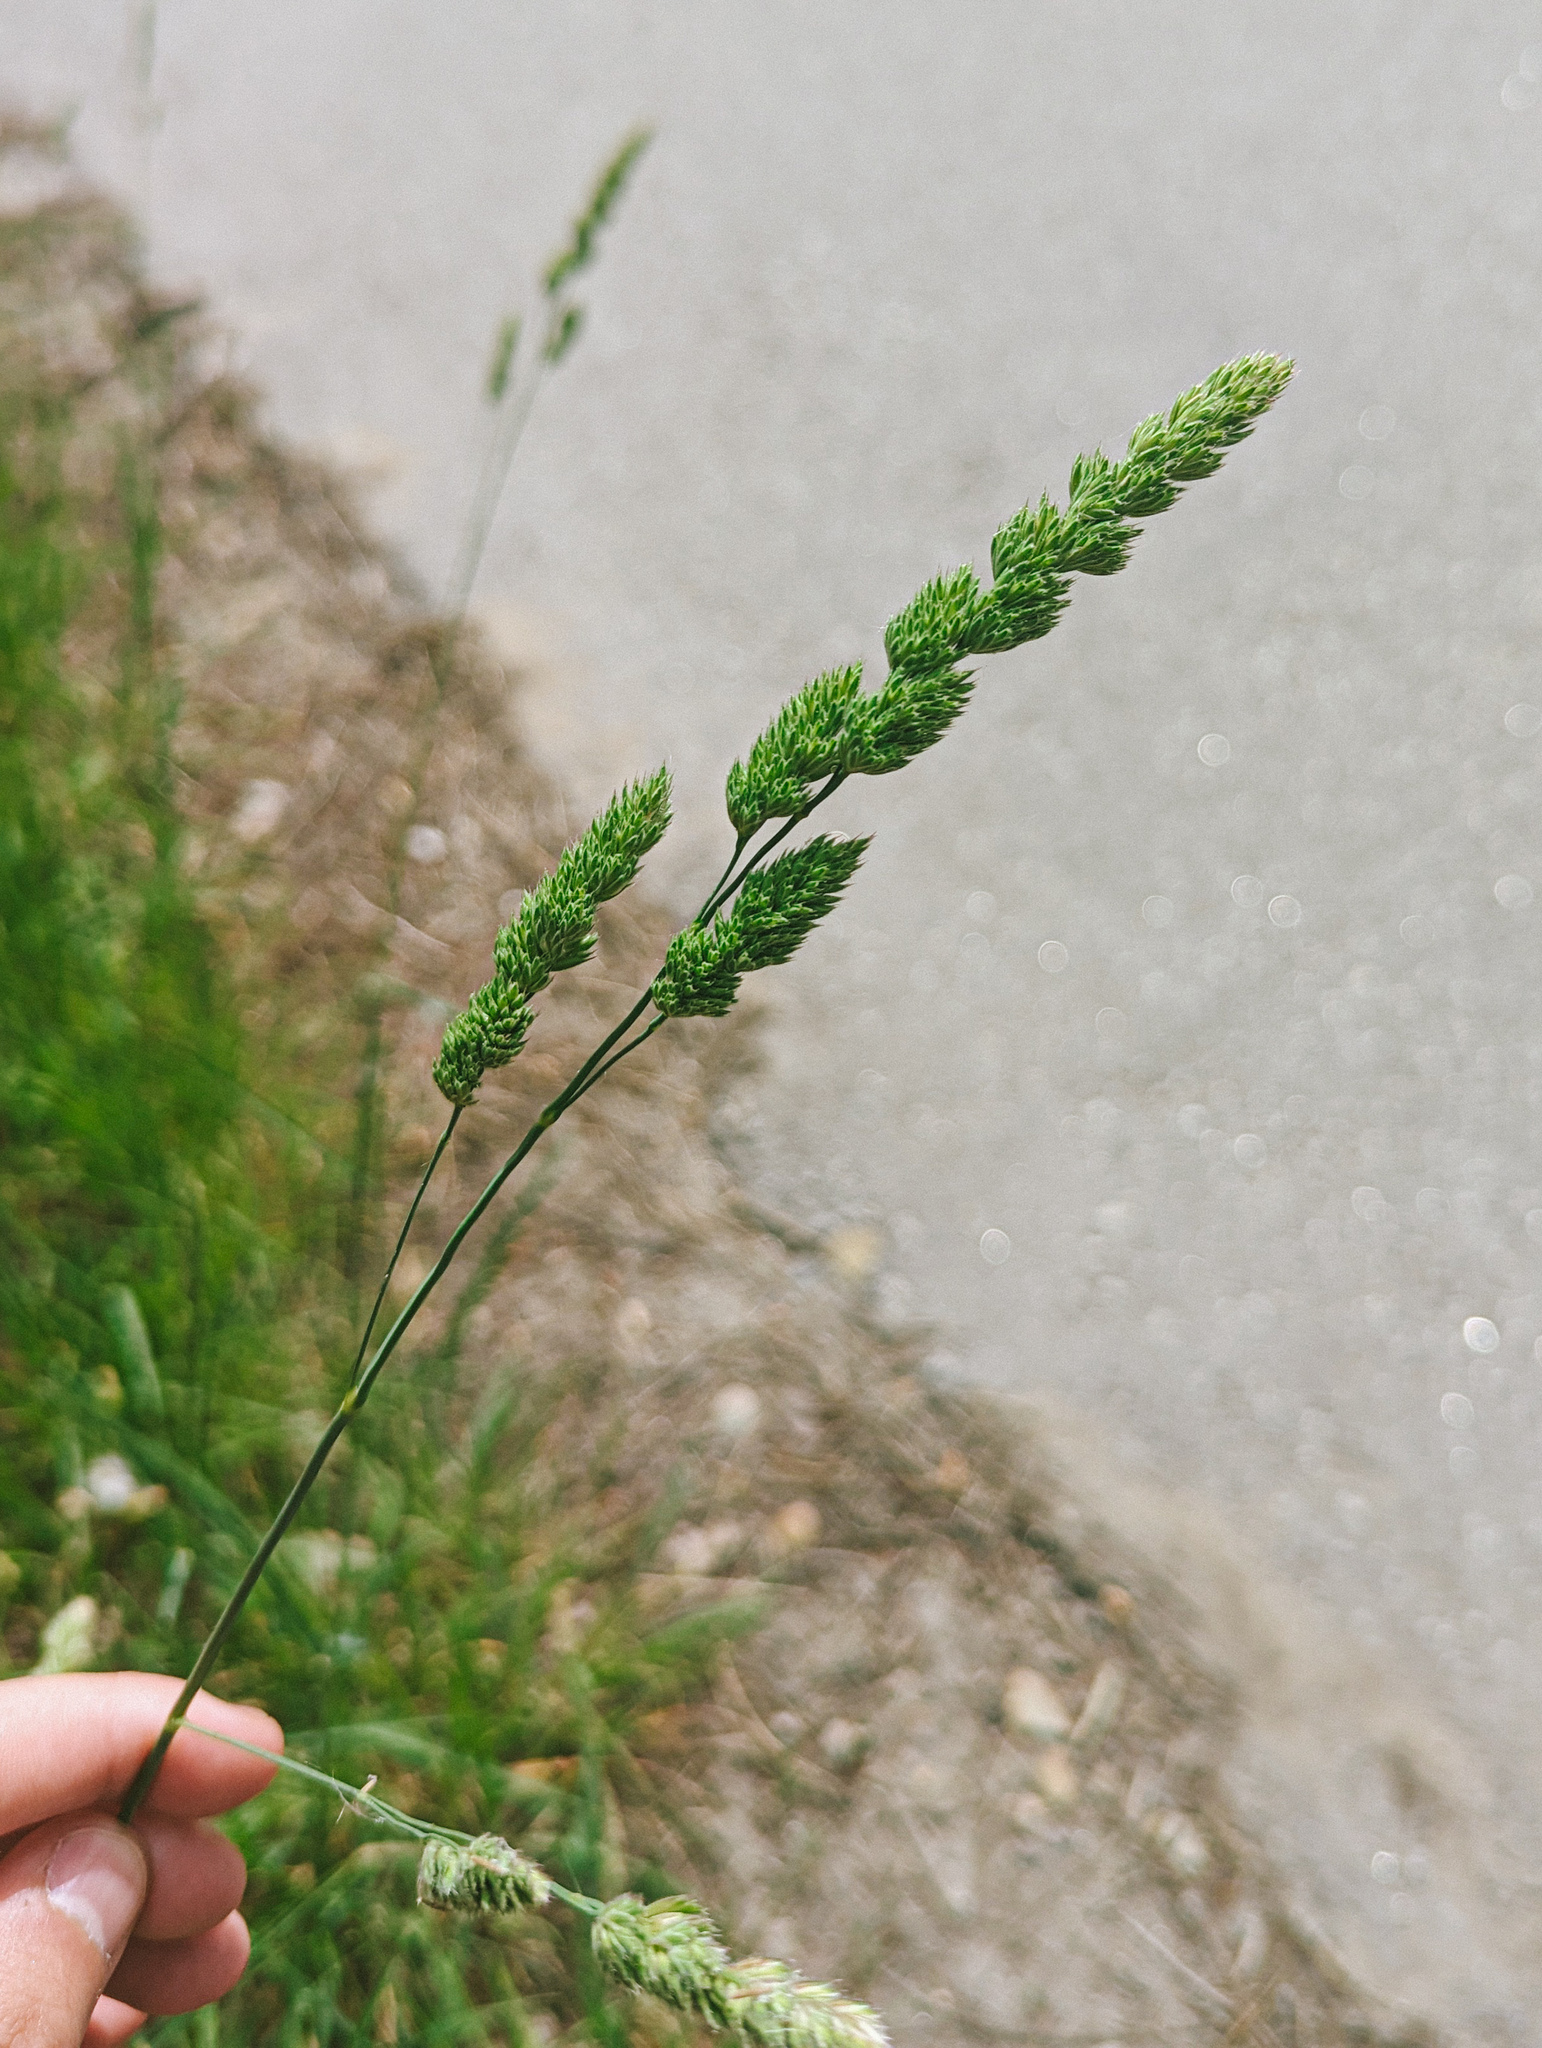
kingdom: Plantae
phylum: Tracheophyta
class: Liliopsida
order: Poales
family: Poaceae
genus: Dactylis
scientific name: Dactylis glomerata
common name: Orchardgrass
